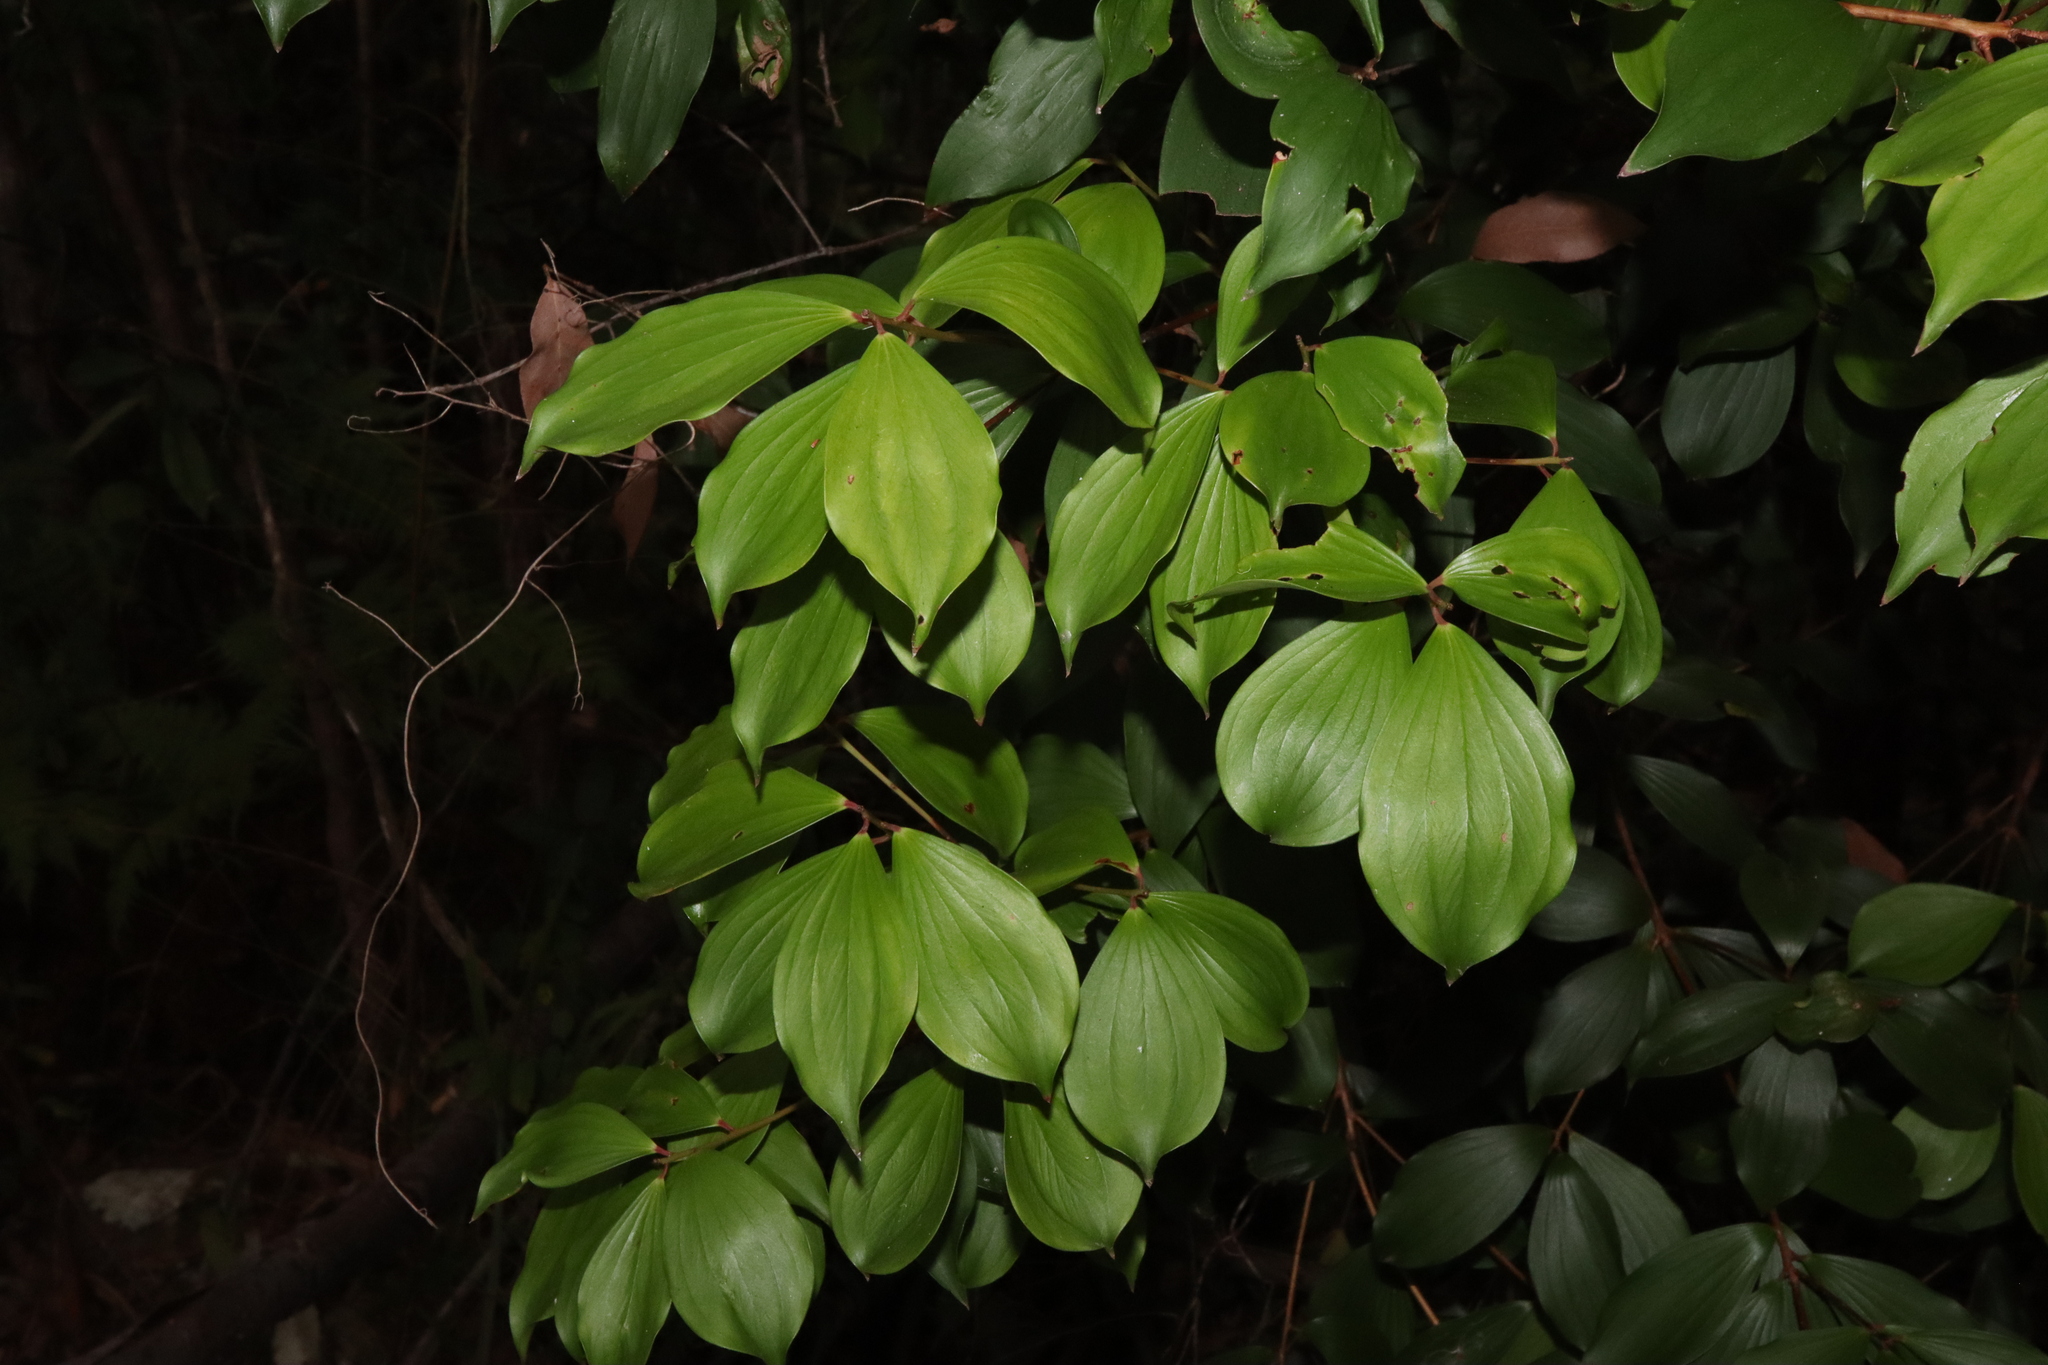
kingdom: Plantae
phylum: Tracheophyta
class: Magnoliopsida
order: Ericales
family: Ericaceae
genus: Trochocarpa
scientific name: Trochocarpa laurina
